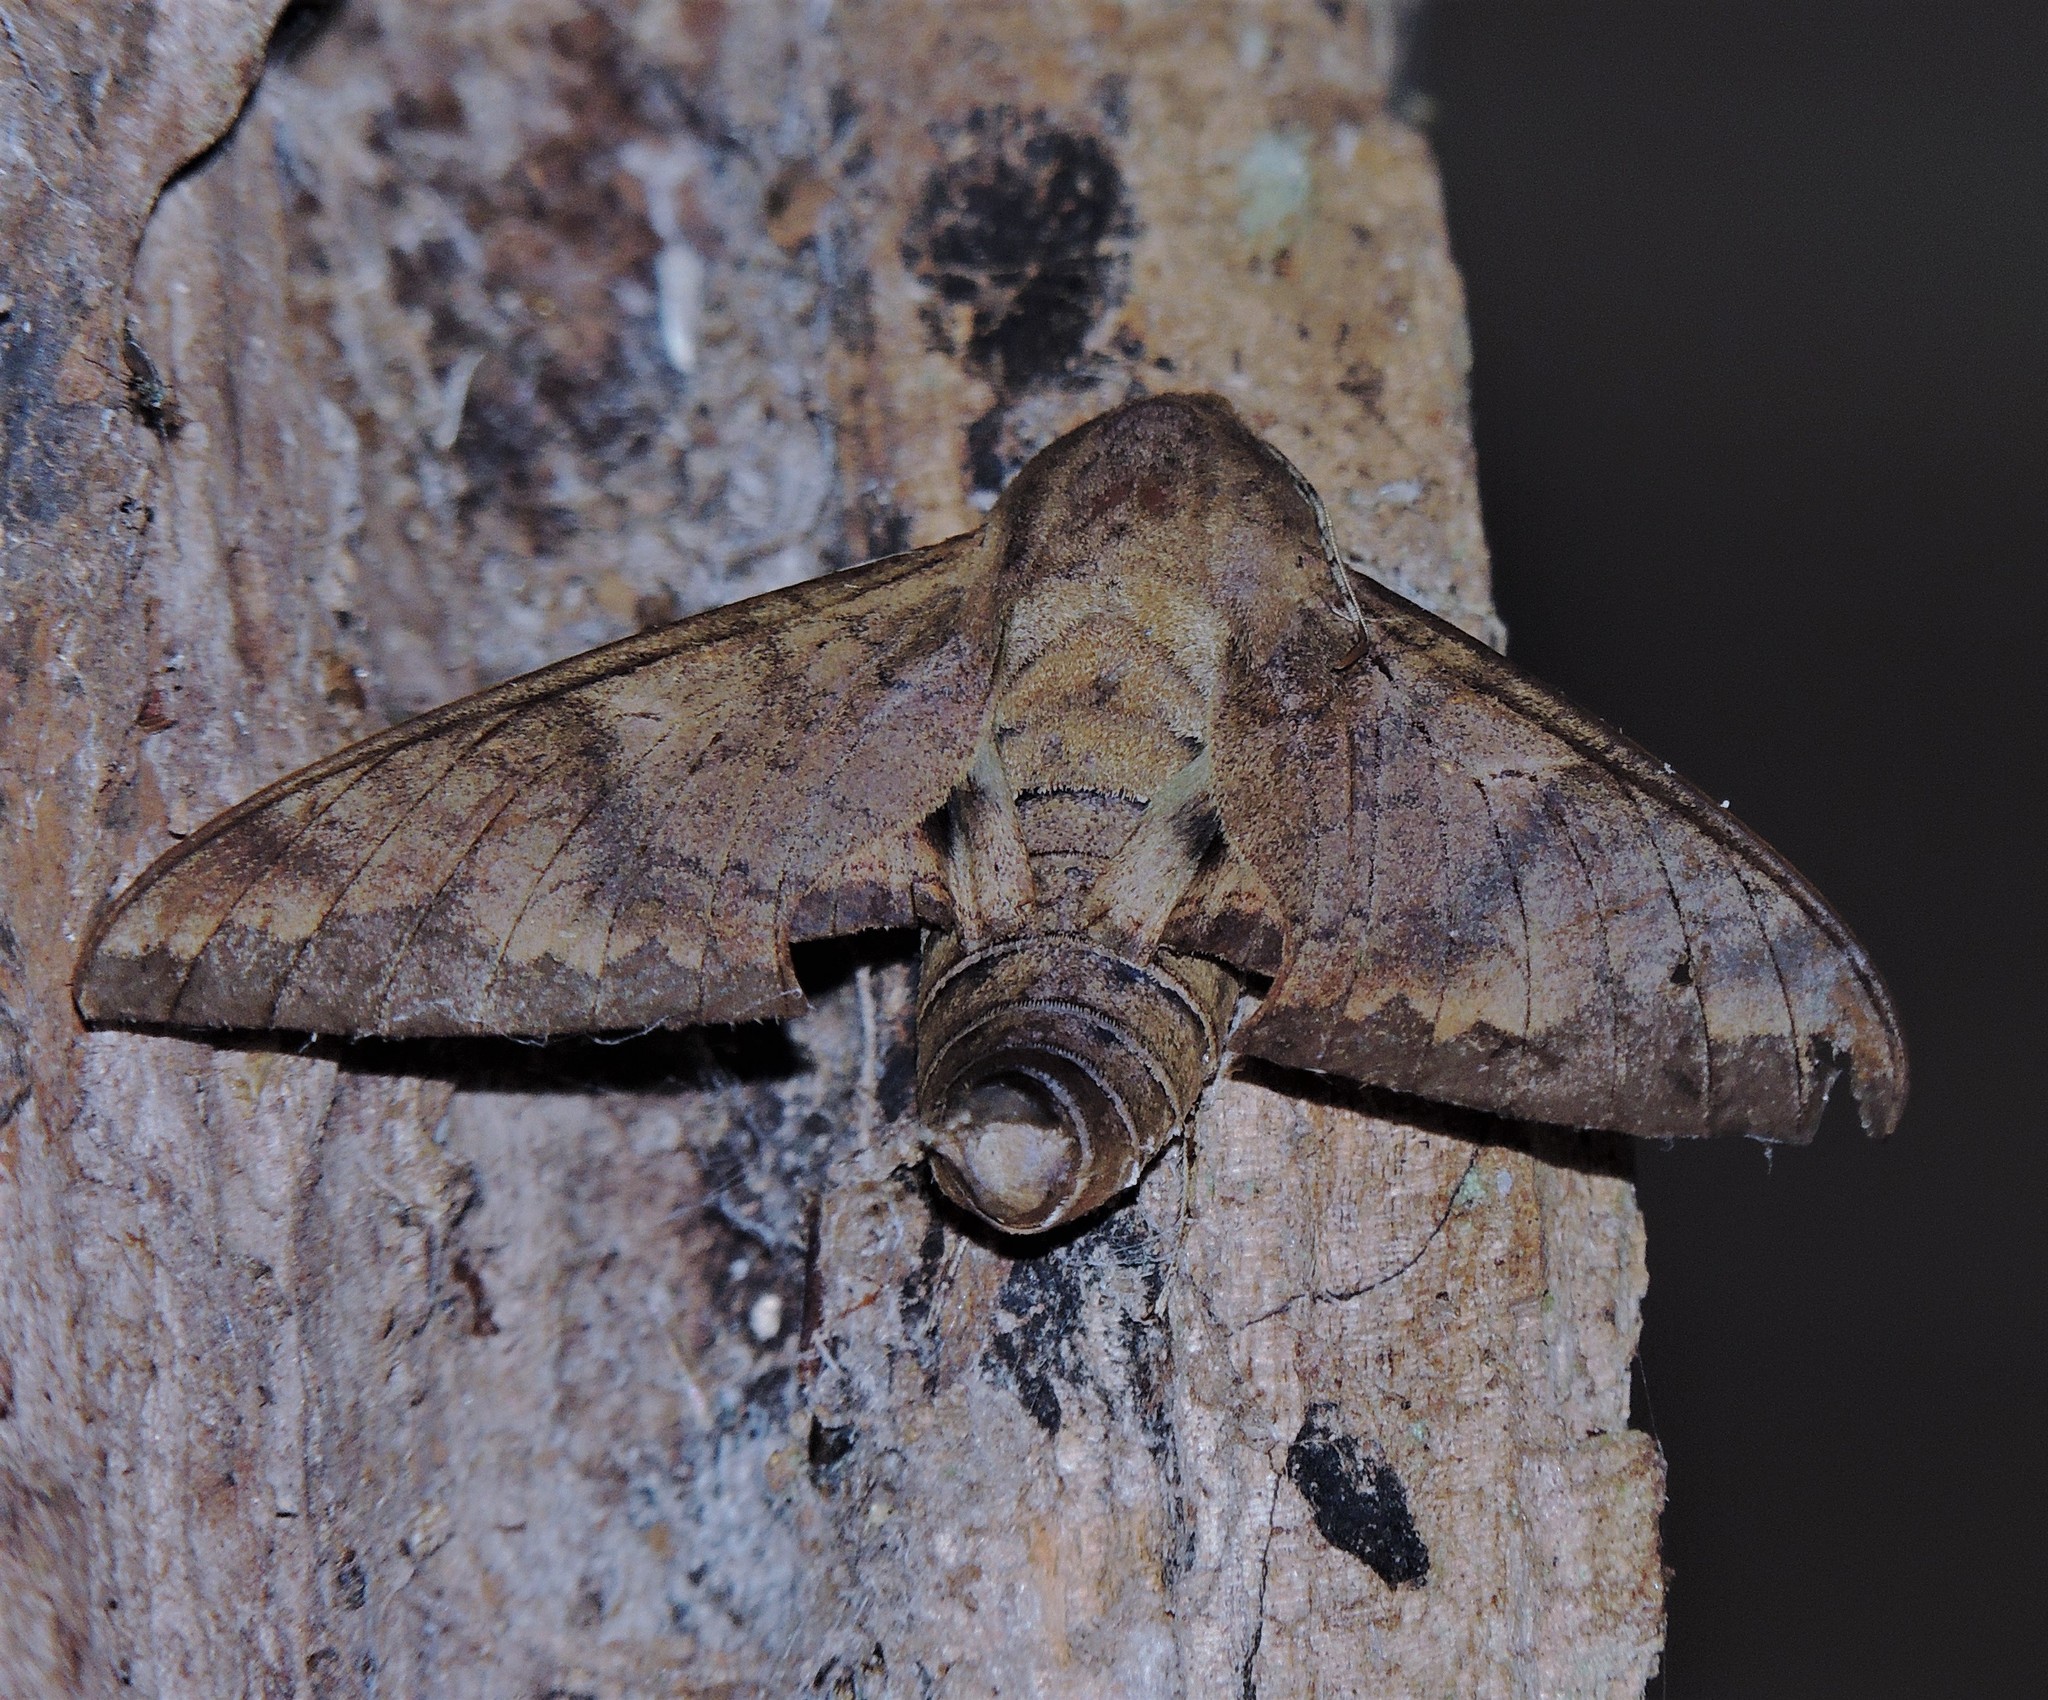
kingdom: Animalia
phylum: Arthropoda
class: Insecta
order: Lepidoptera
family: Sphingidae
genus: Pachylioides
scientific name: Pachylioides resumens
